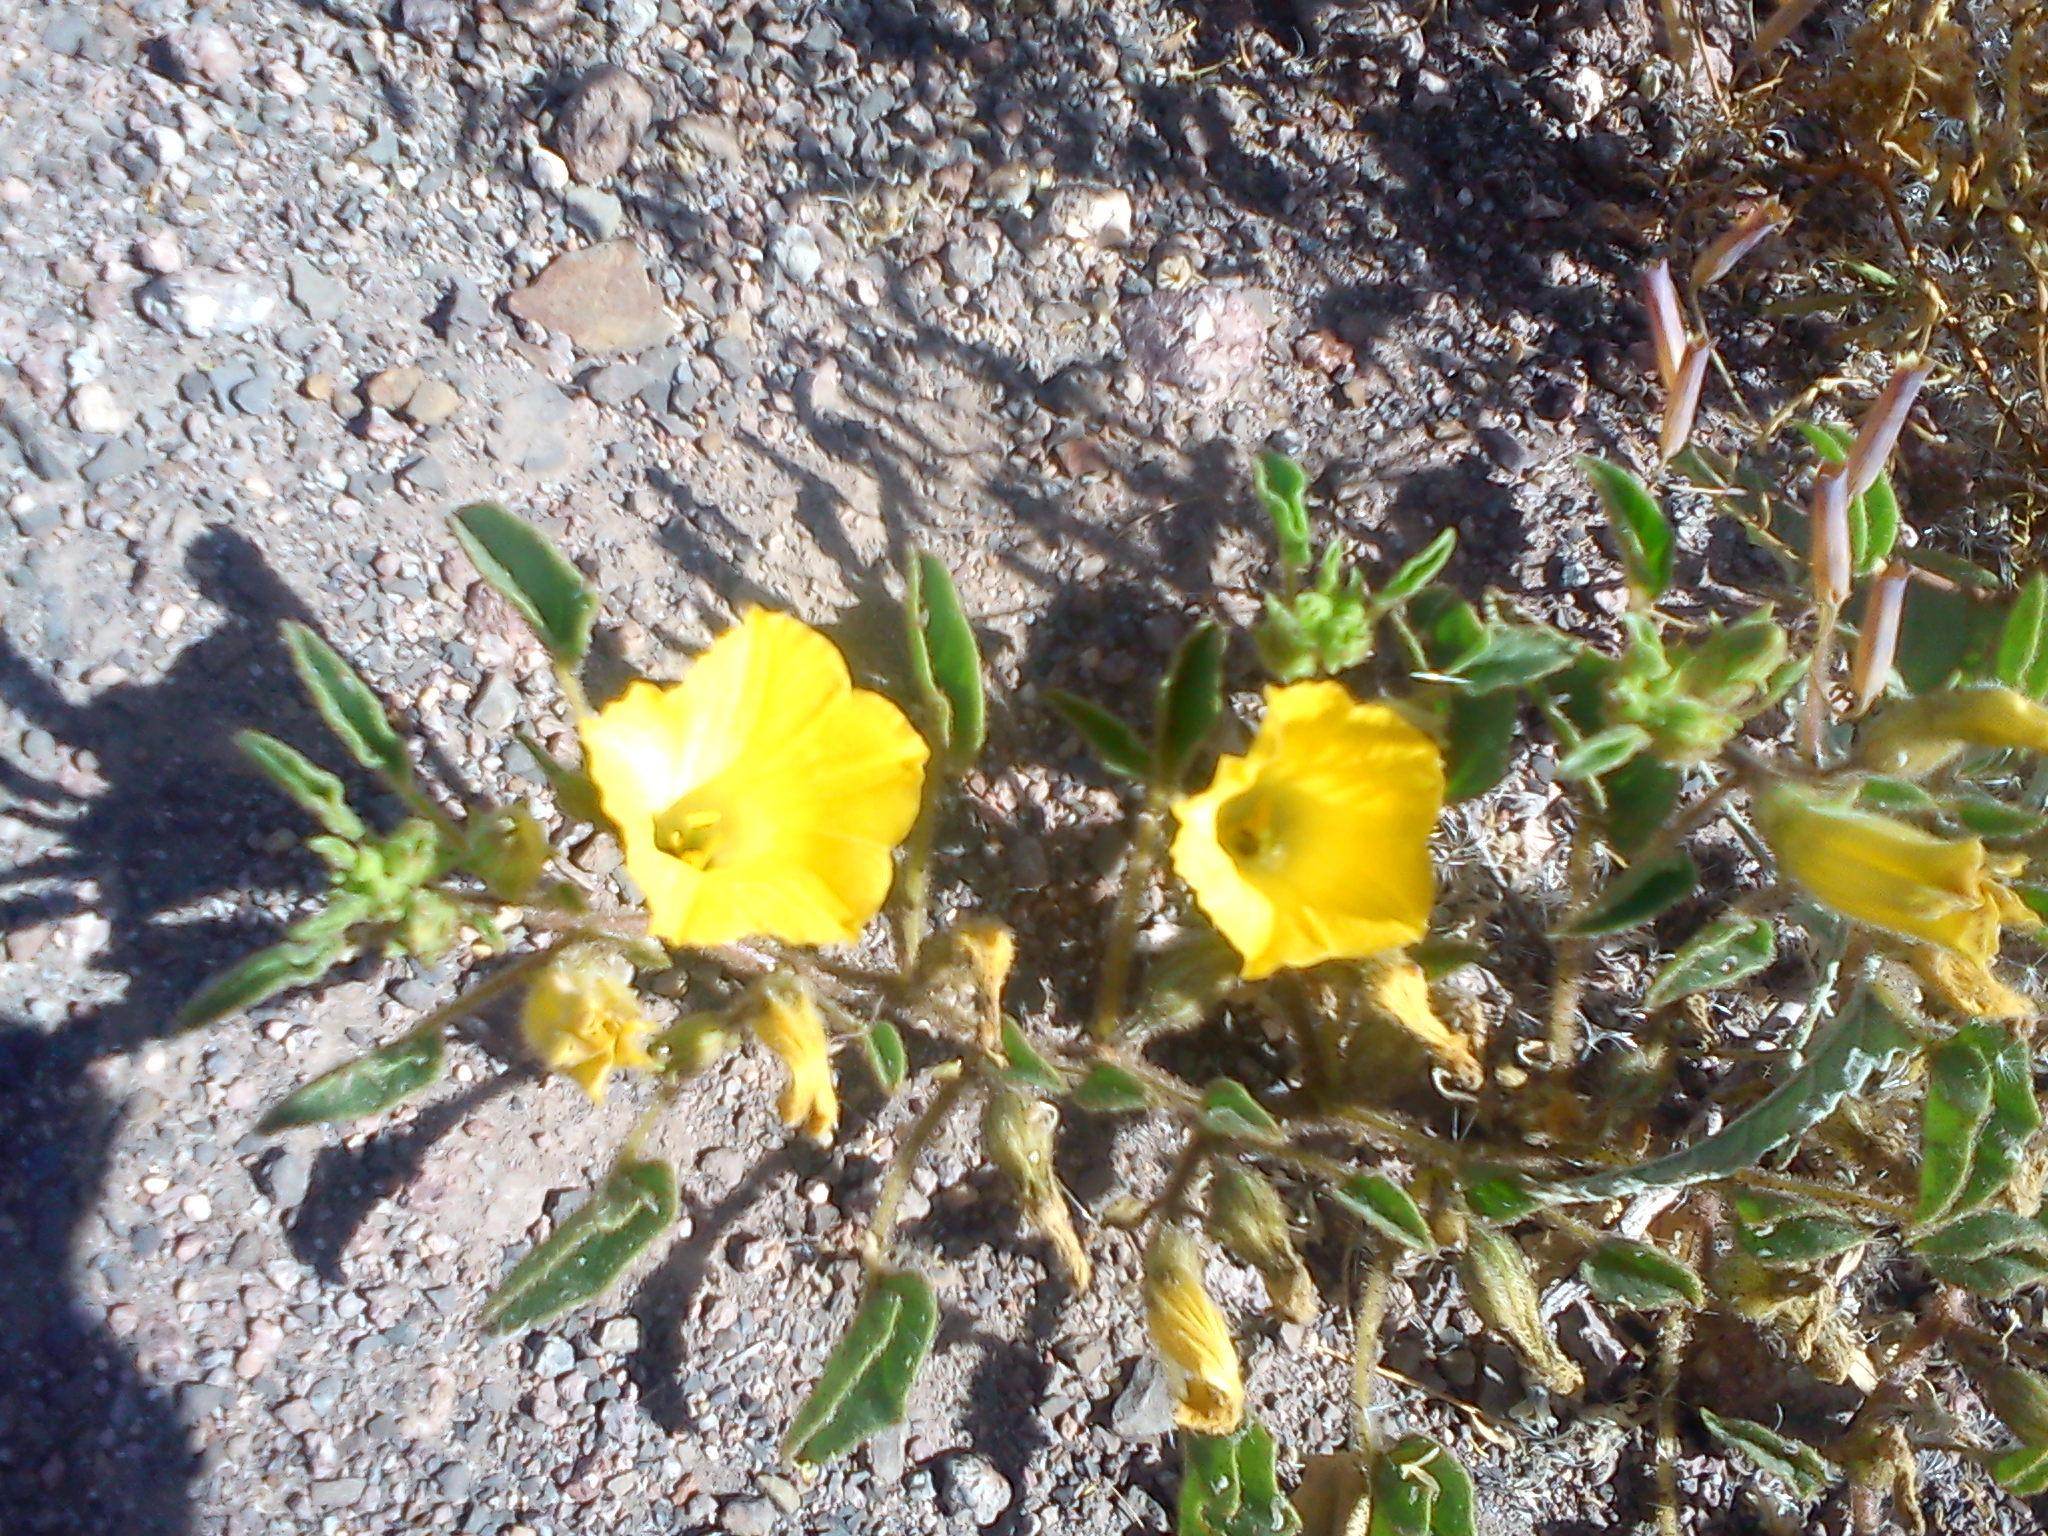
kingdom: Plantae
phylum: Tracheophyta
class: Magnoliopsida
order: Solanales
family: Solanaceae
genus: Exodeconus
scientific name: Exodeconus flavus
